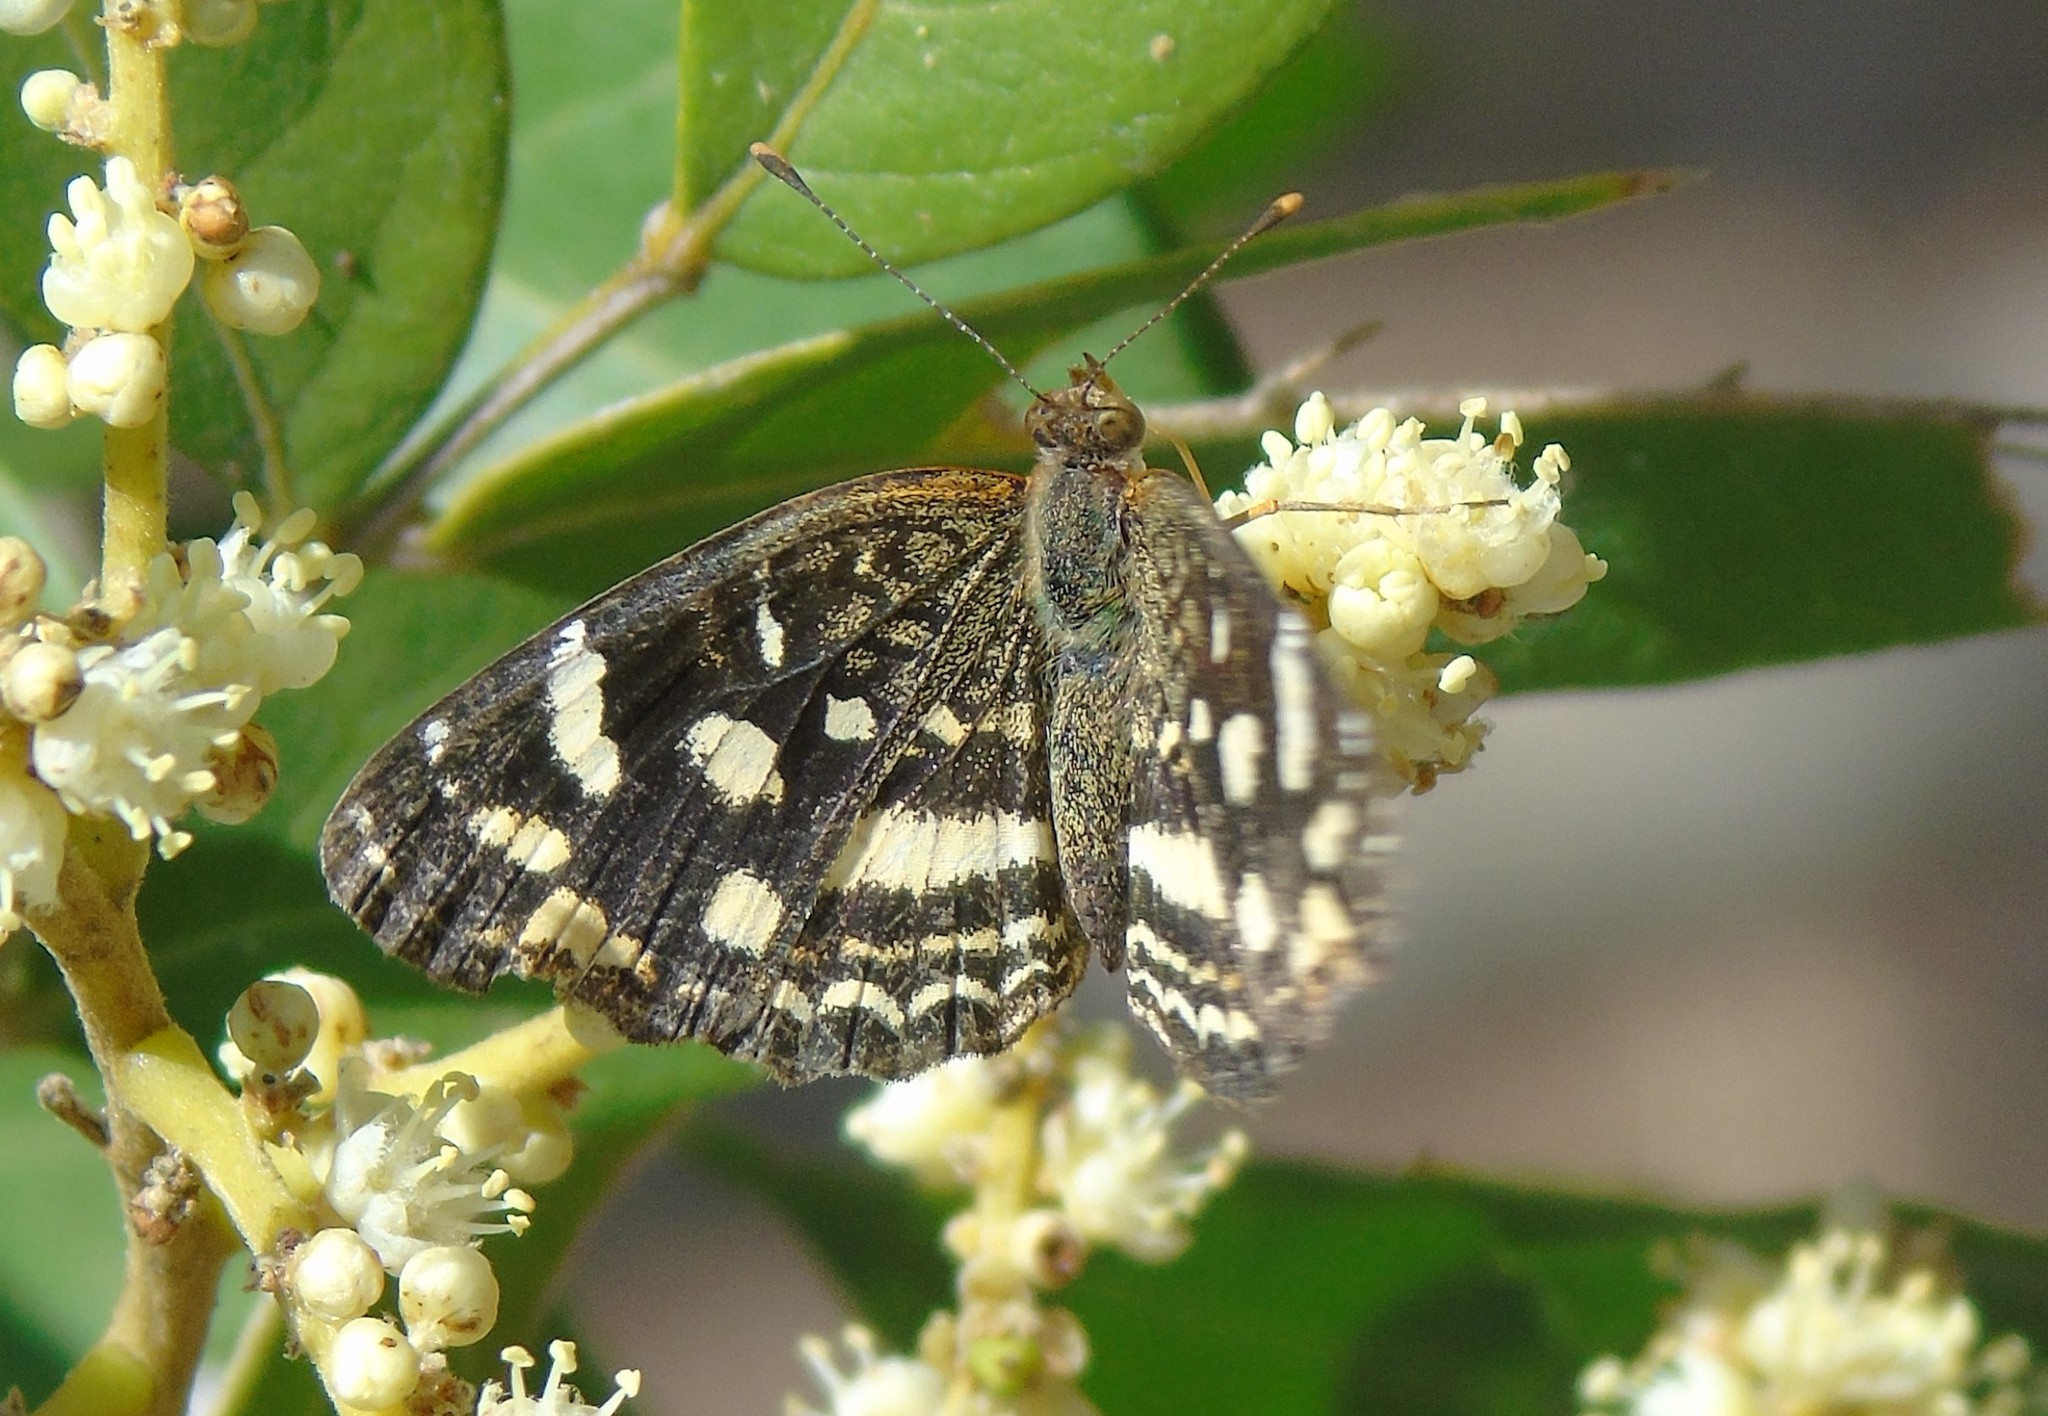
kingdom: Animalia
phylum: Arthropoda
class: Insecta
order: Lepidoptera
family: Nymphalidae
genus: Anthanassa
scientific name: Anthanassa tulcis
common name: Pale-banded crescent
